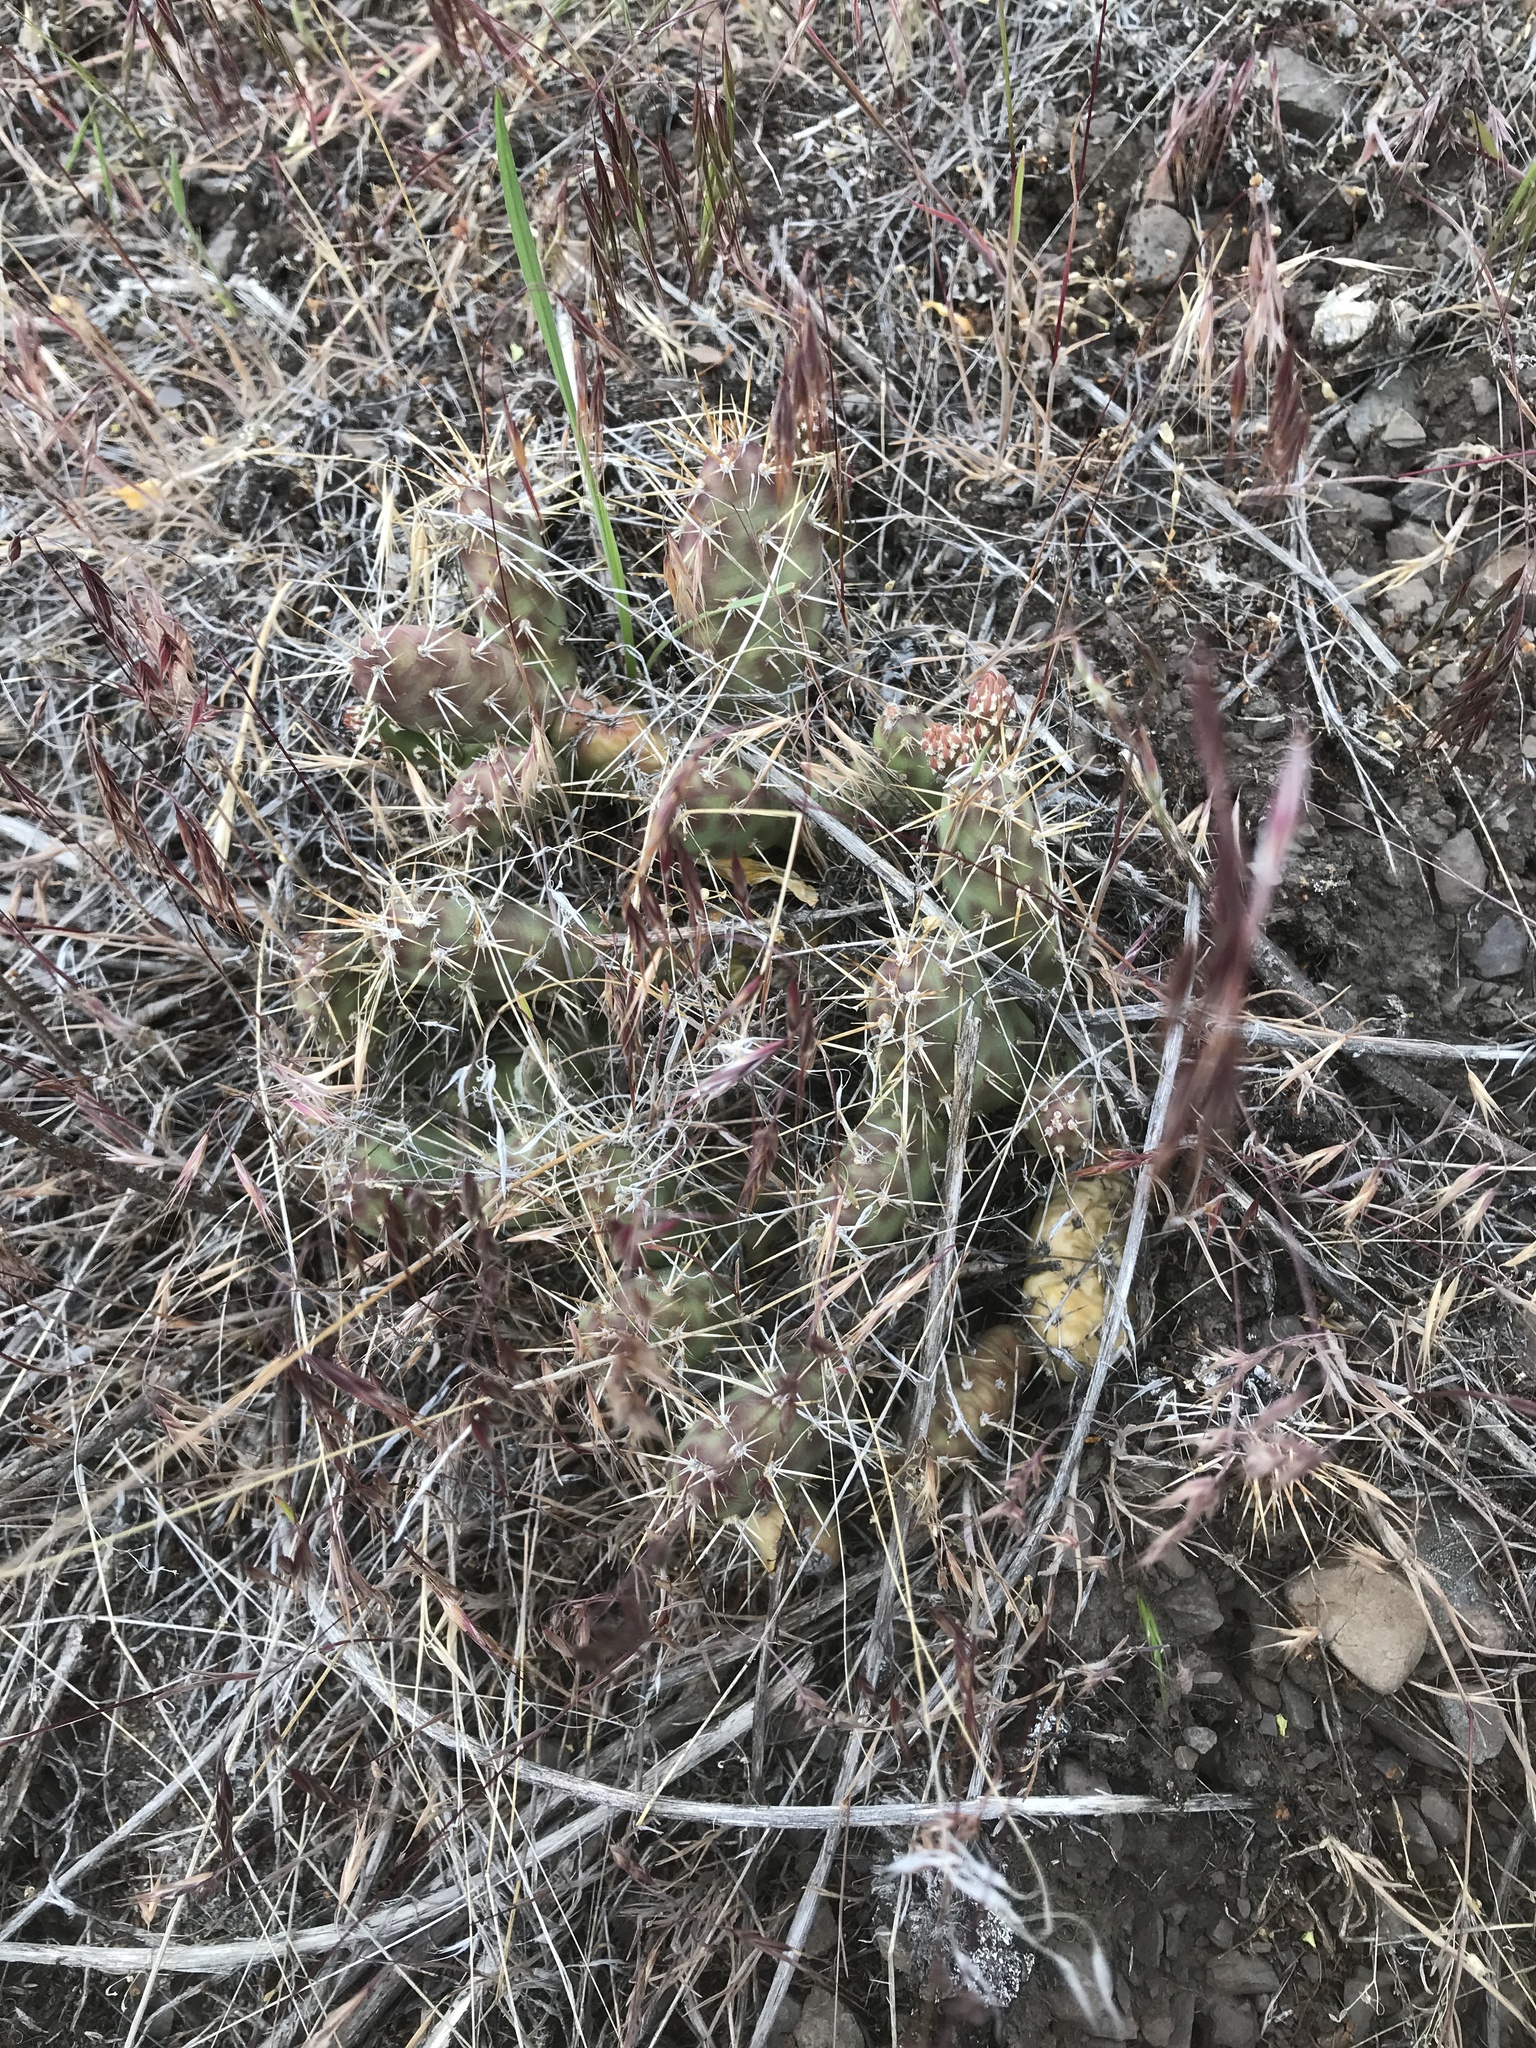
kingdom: Plantae
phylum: Tracheophyta
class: Magnoliopsida
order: Caryophyllales
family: Cactaceae
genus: Opuntia
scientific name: Opuntia fragilis
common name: Brittle cactus
